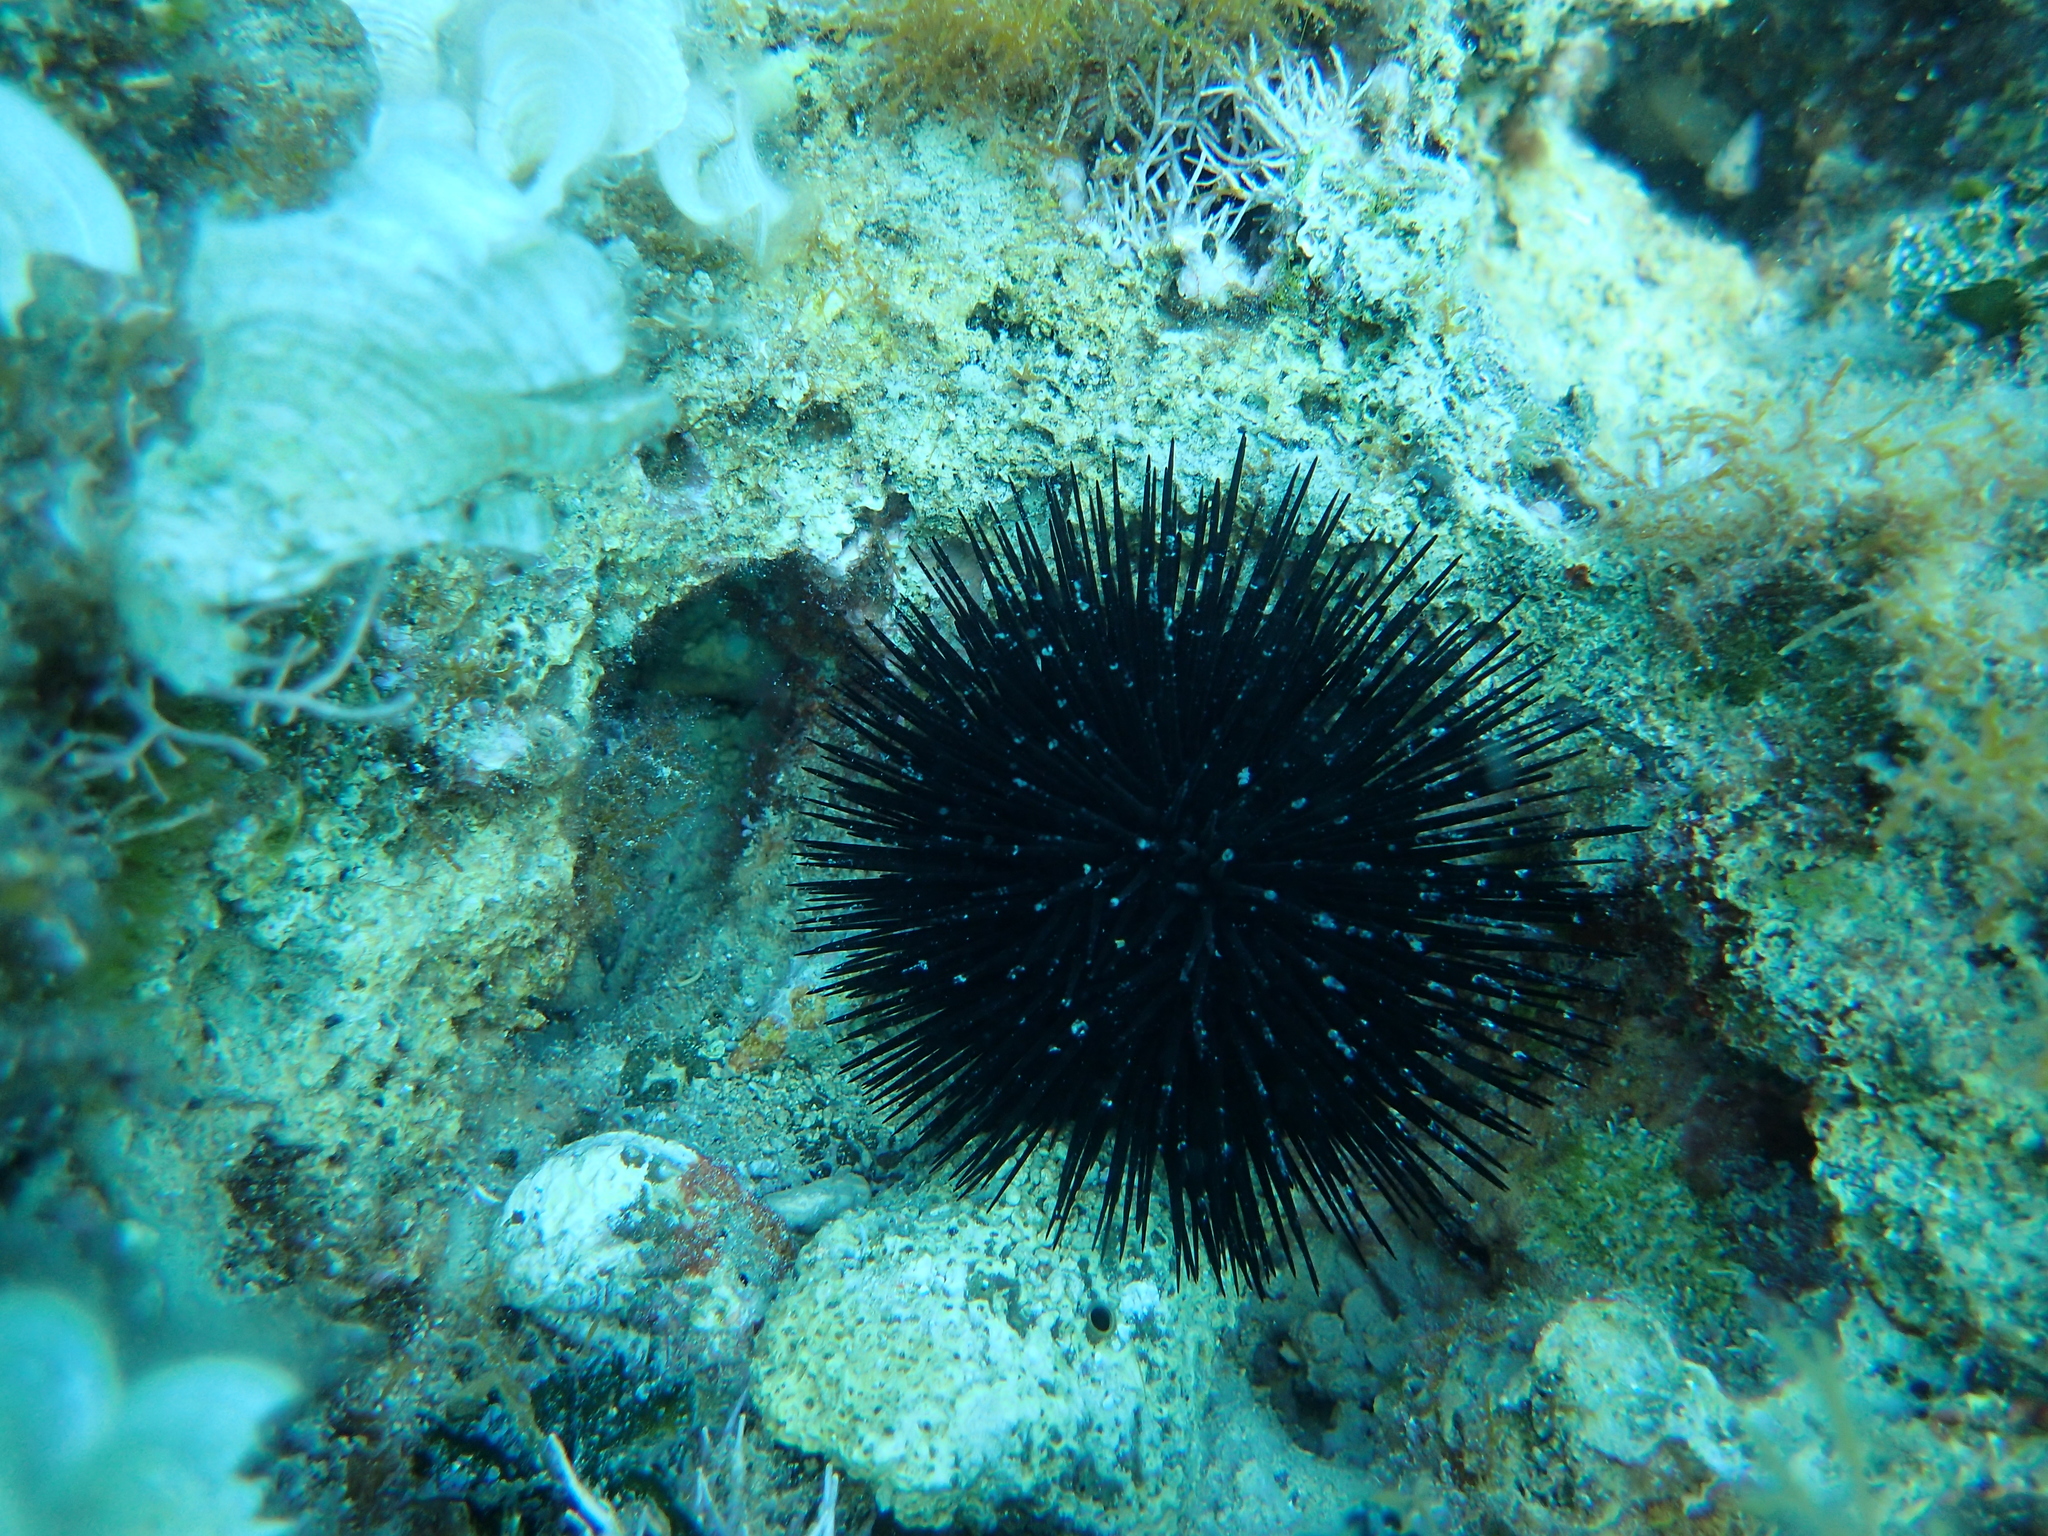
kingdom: Animalia
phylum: Echinodermata
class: Echinoidea
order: Arbacioida
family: Arbaciidae
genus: Arbacia
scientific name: Arbacia lixula
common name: Black sea urchin
